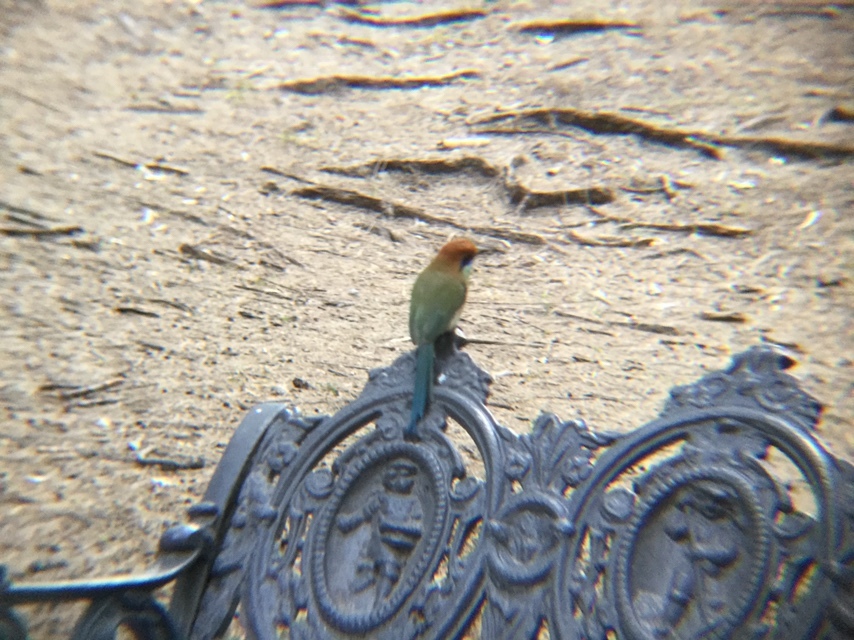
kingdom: Animalia
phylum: Chordata
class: Aves
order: Coraciiformes
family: Momotidae
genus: Momotus
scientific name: Momotus mexicanus
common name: Russet-crowned motmot
